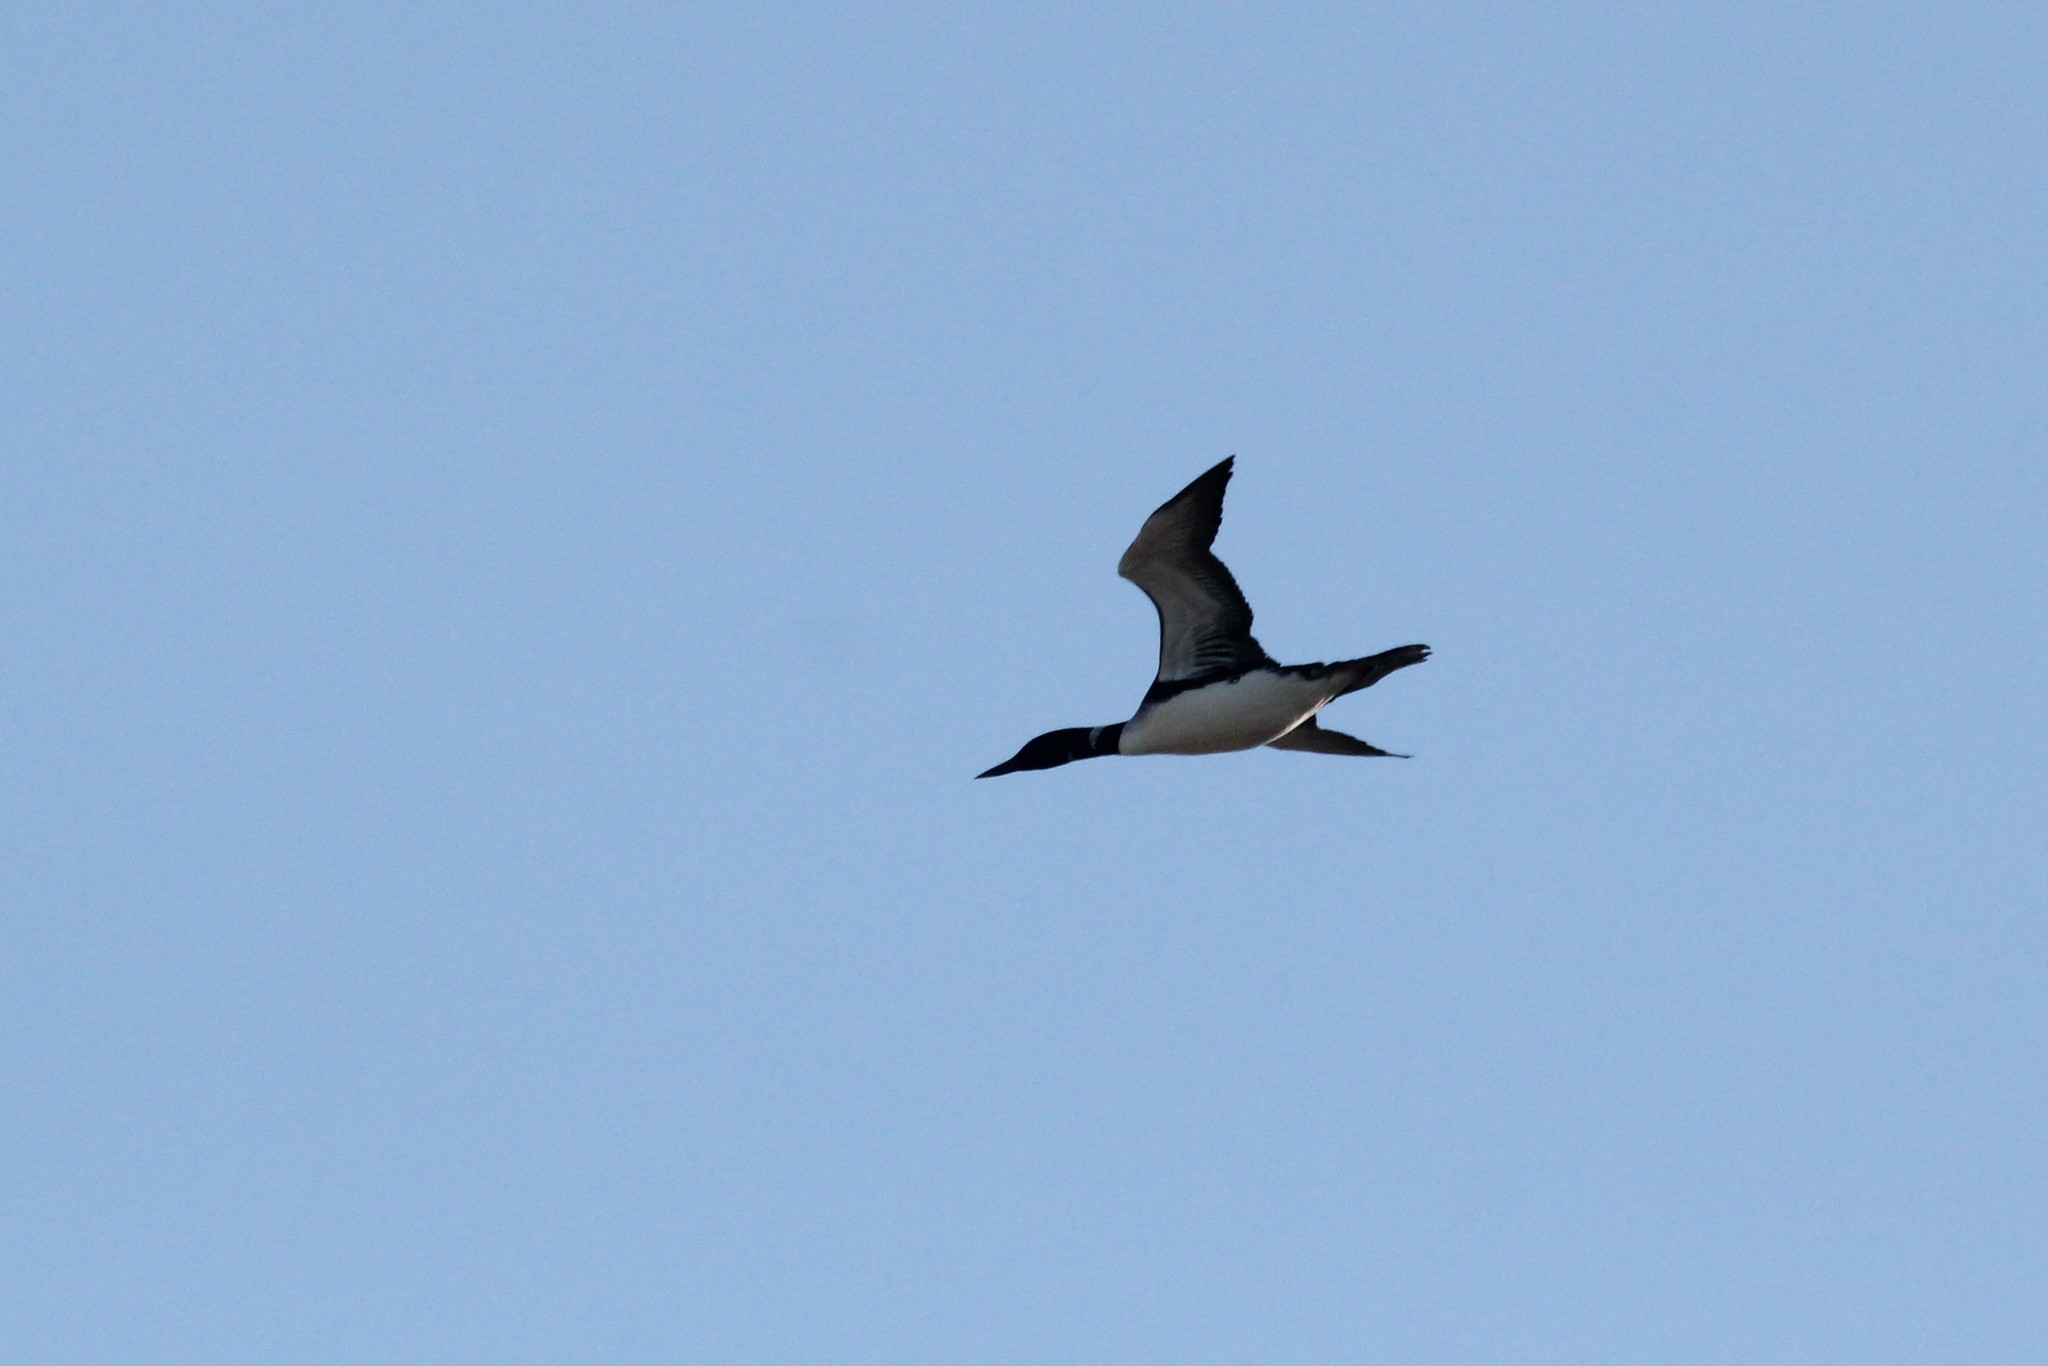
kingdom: Animalia
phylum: Chordata
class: Aves
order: Gaviiformes
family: Gaviidae
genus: Gavia
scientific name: Gavia immer
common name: Common loon
